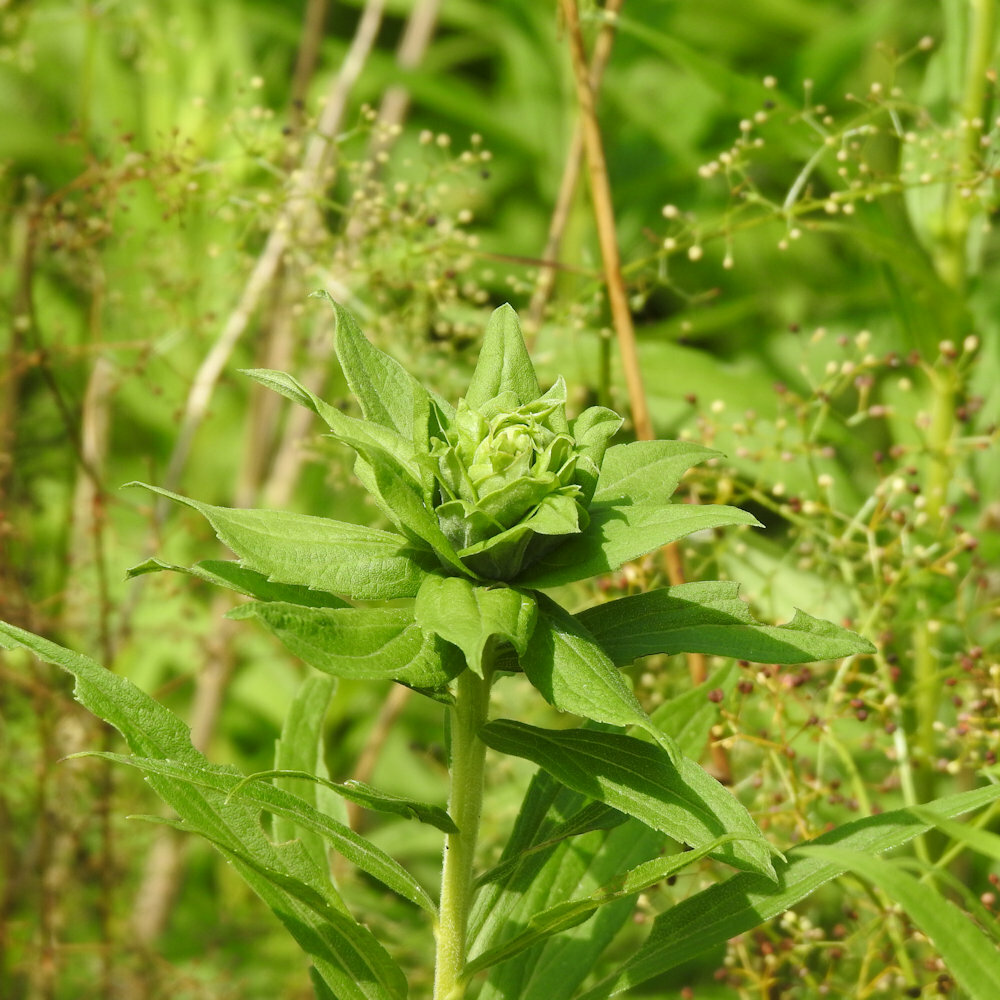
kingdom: Animalia
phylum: Arthropoda
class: Insecta
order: Diptera
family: Cecidomyiidae
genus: Rhopalomyia
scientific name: Rhopalomyia solidaginis
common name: Goldenrod bunch gall midge
